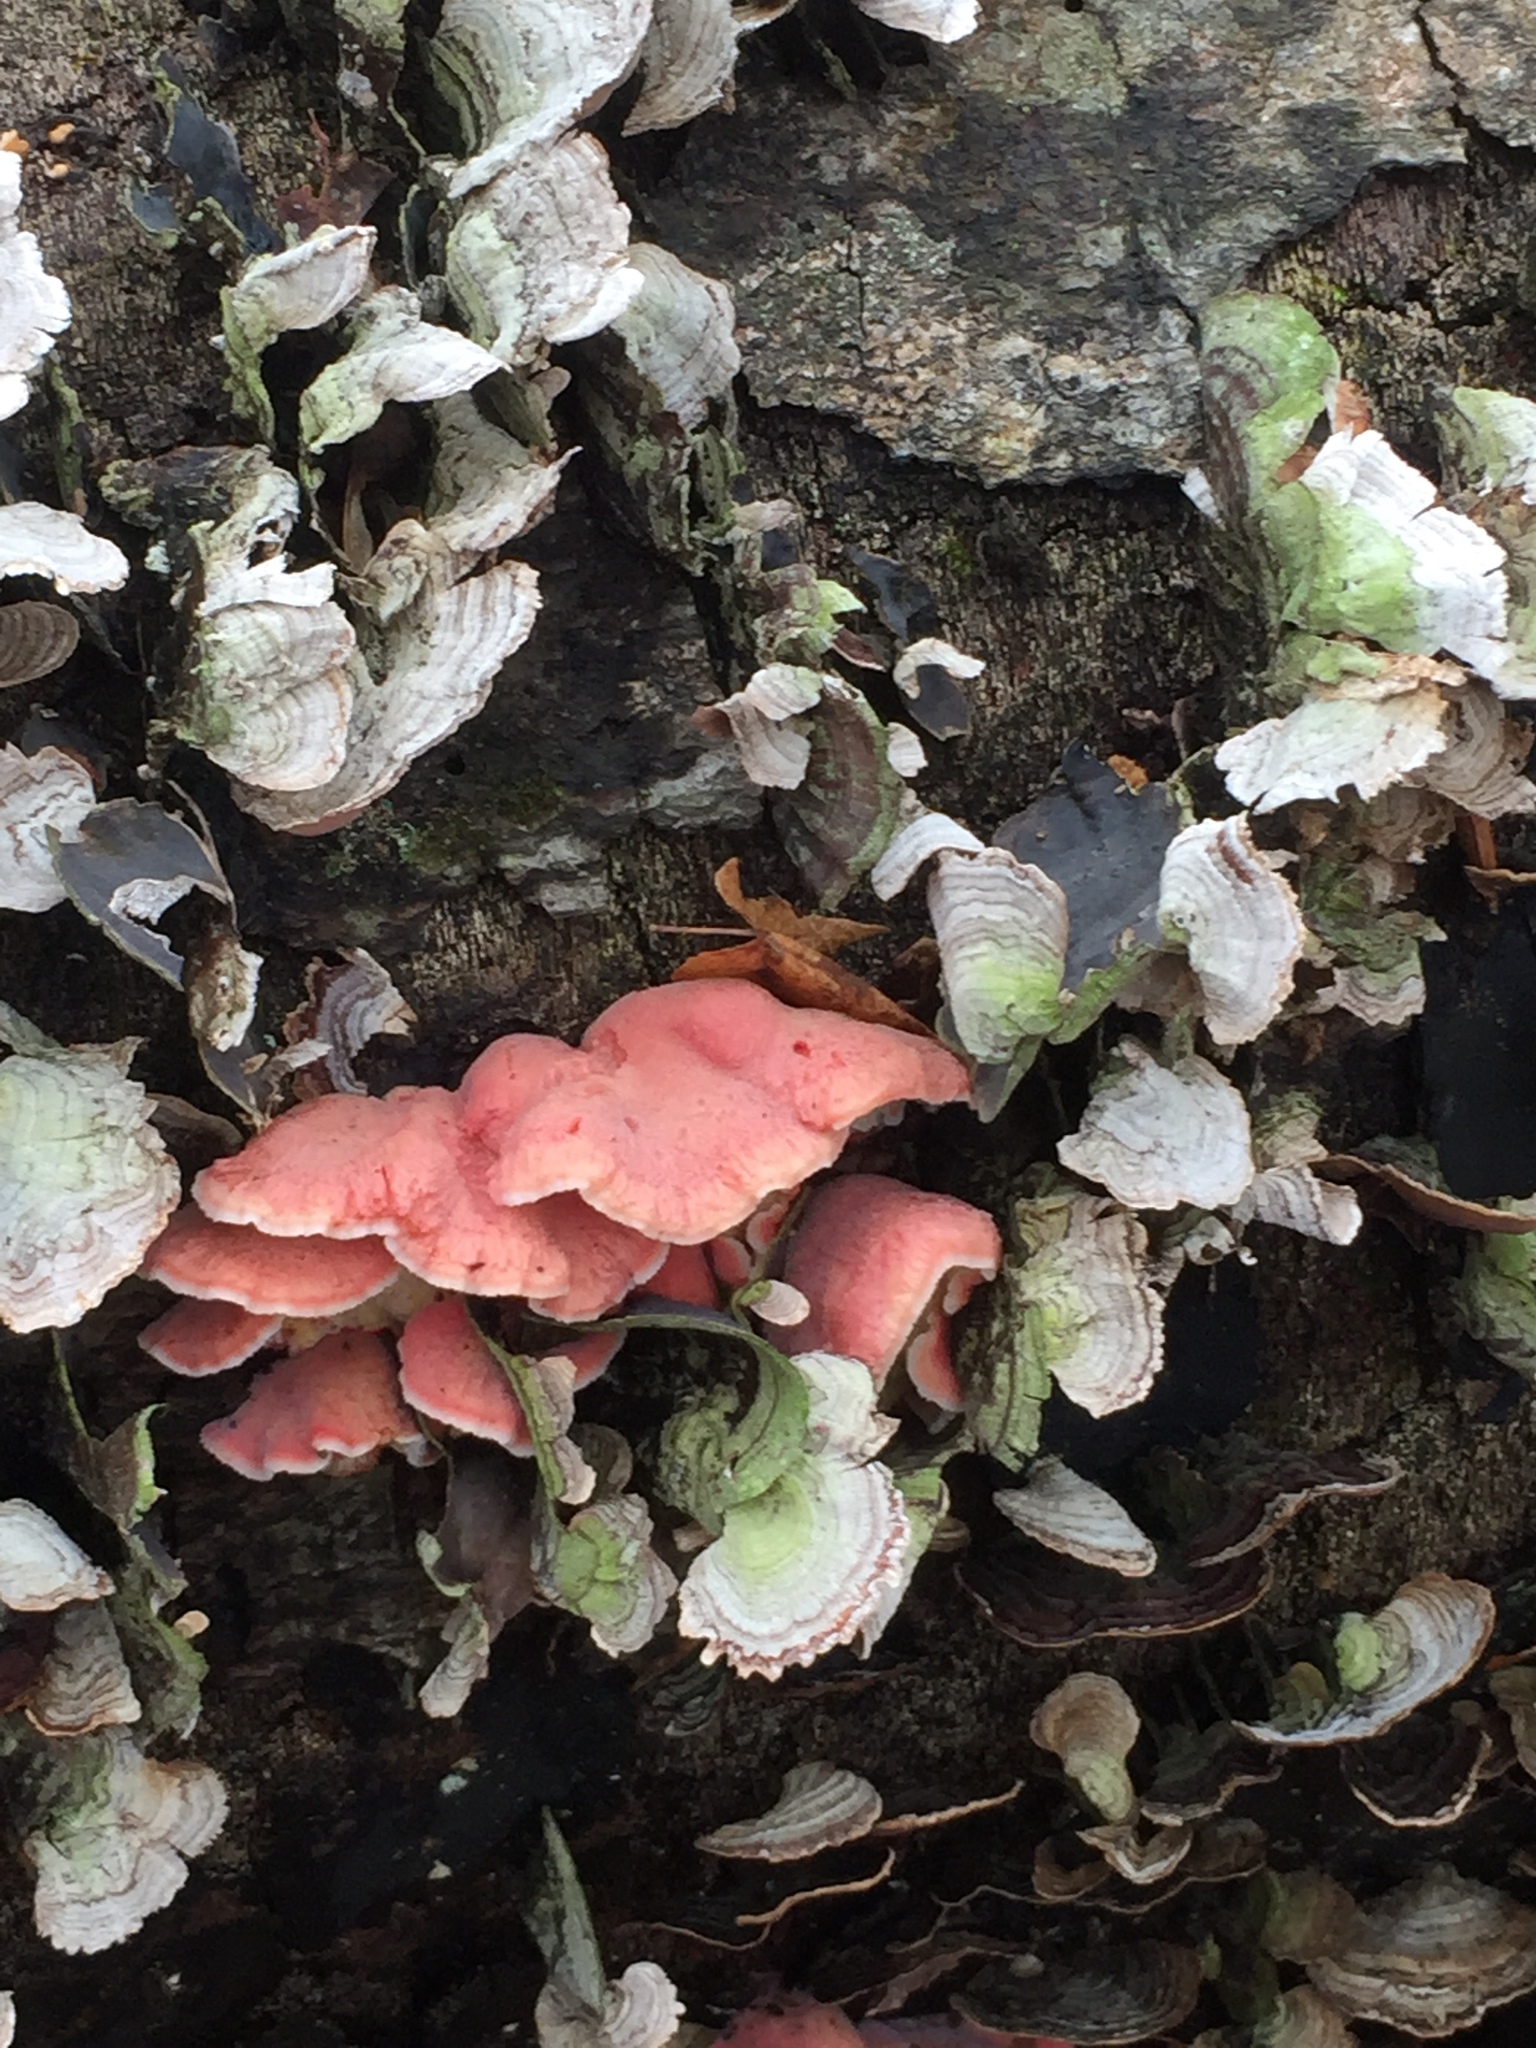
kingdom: Fungi
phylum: Basidiomycota
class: Agaricomycetes
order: Polyporales
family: Irpicaceae
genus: Byssomerulius
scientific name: Byssomerulius incarnatus
